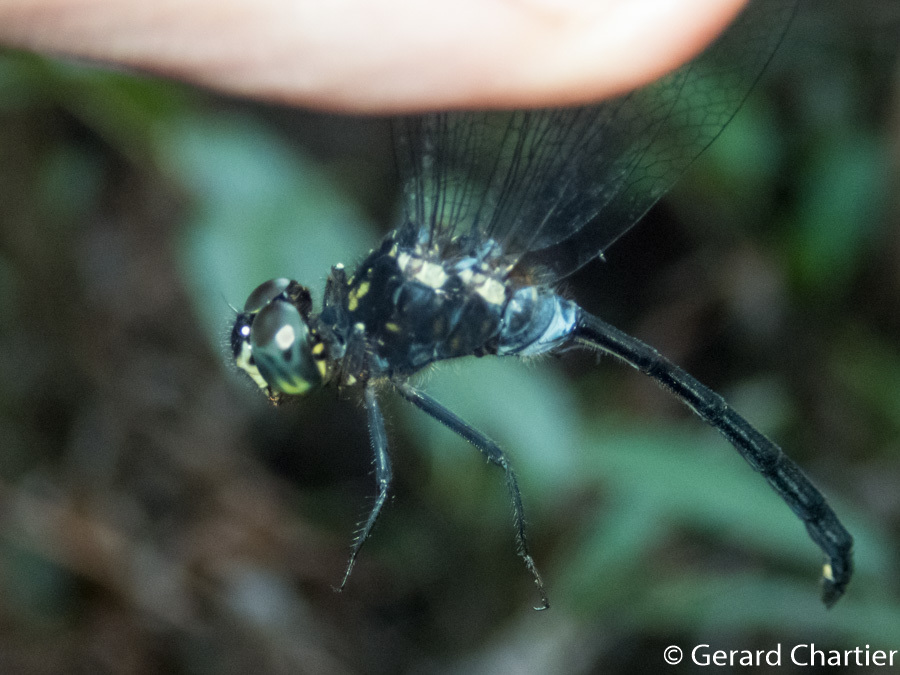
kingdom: Animalia
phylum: Arthropoda
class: Insecta
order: Odonata
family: Libellulidae
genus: Pornothemis
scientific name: Pornothemis starrei
